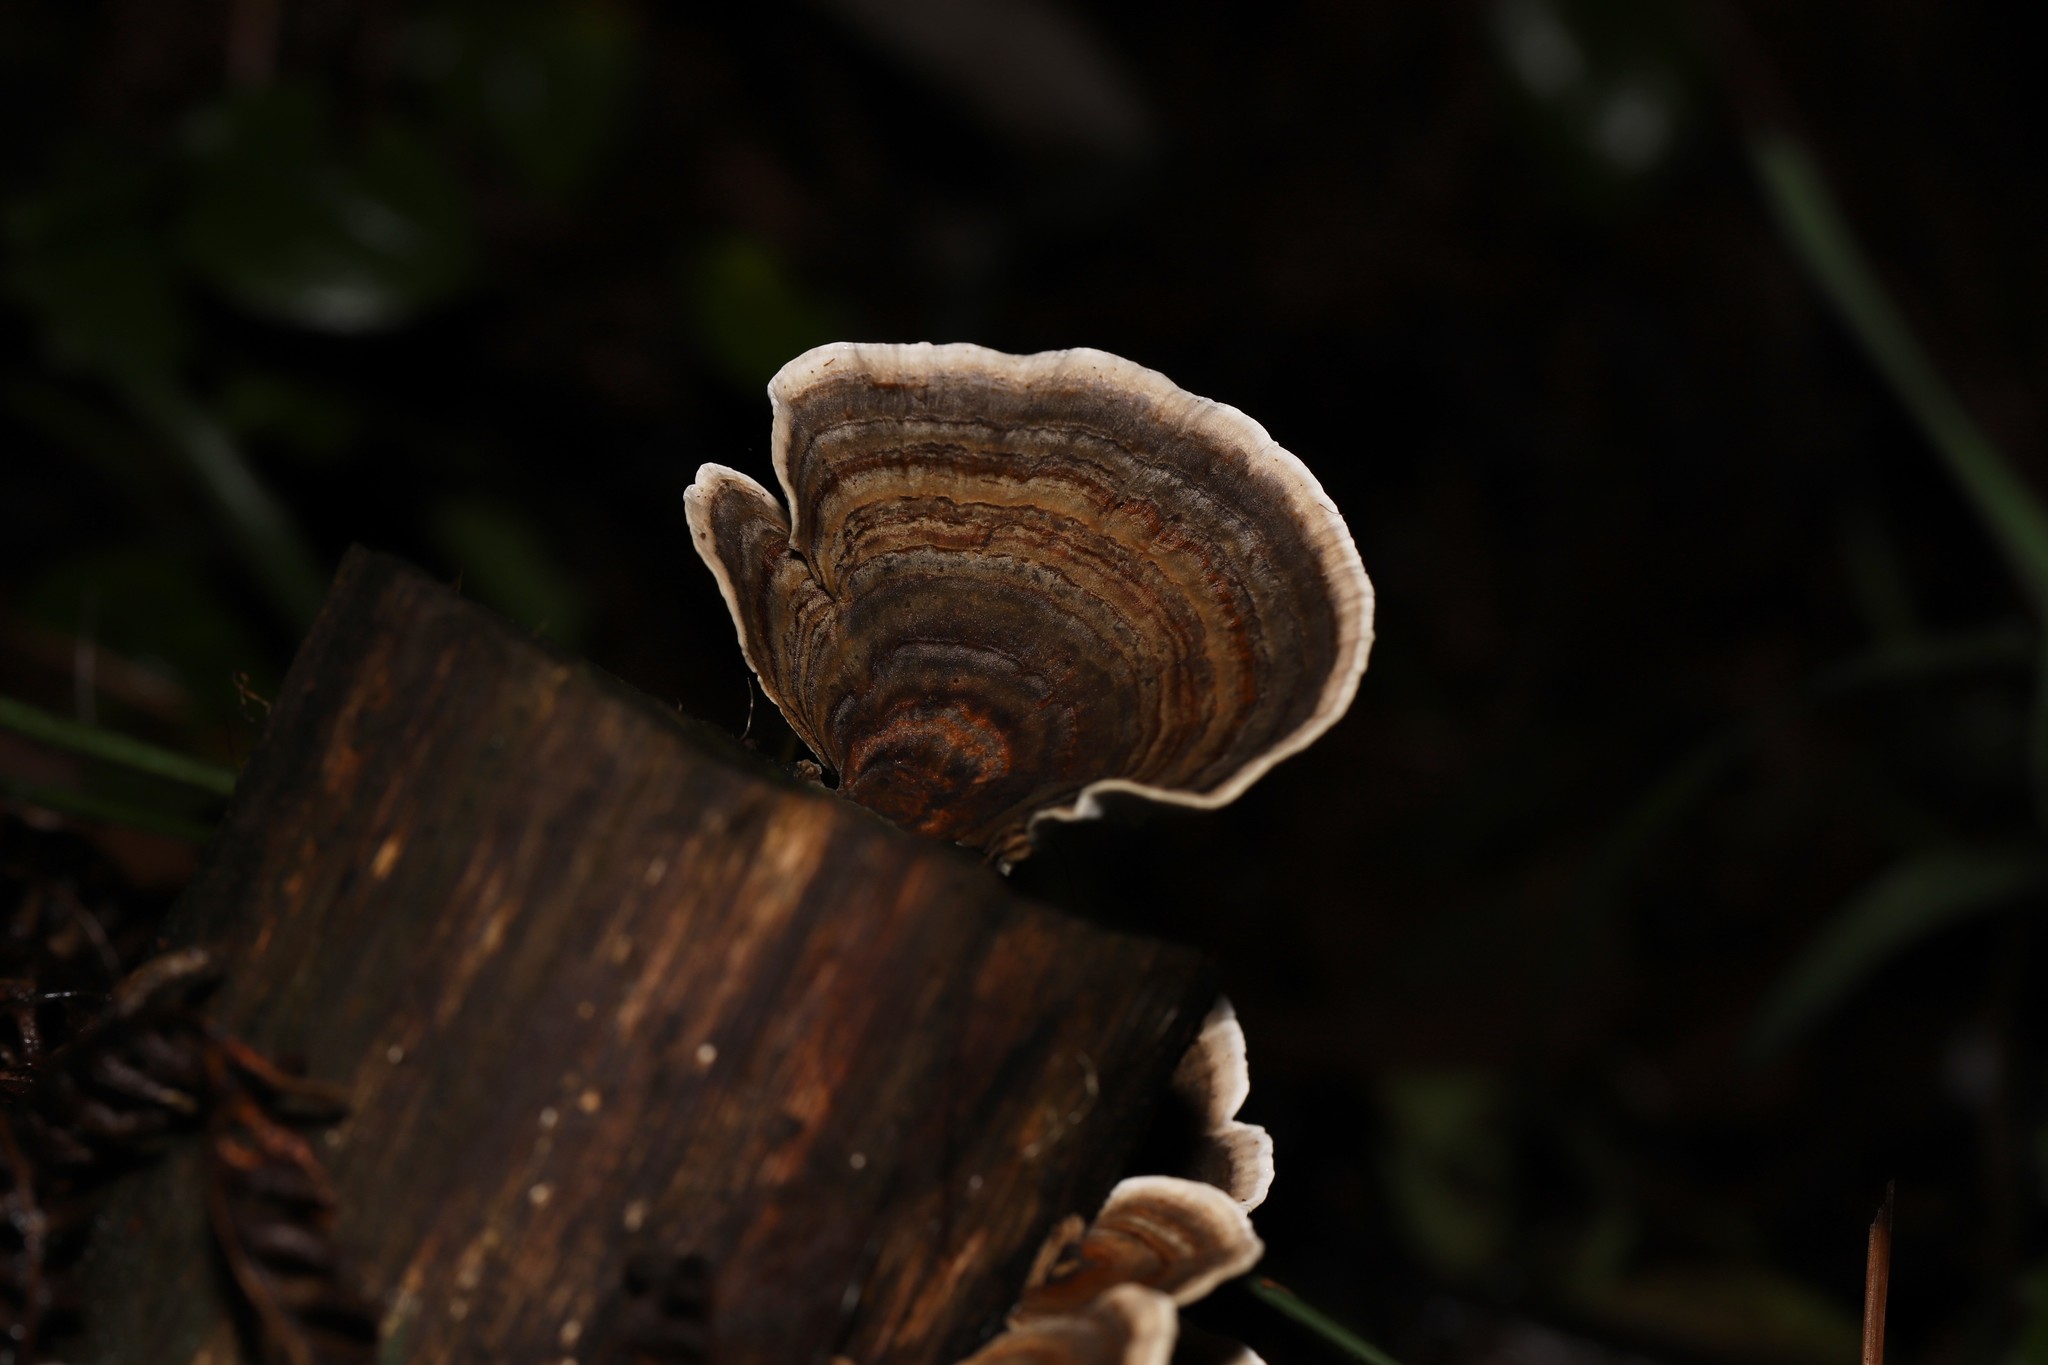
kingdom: Fungi
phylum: Basidiomycota
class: Agaricomycetes
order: Polyporales
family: Polyporaceae
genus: Trametes
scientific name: Trametes versicolor
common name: Turkeytail
